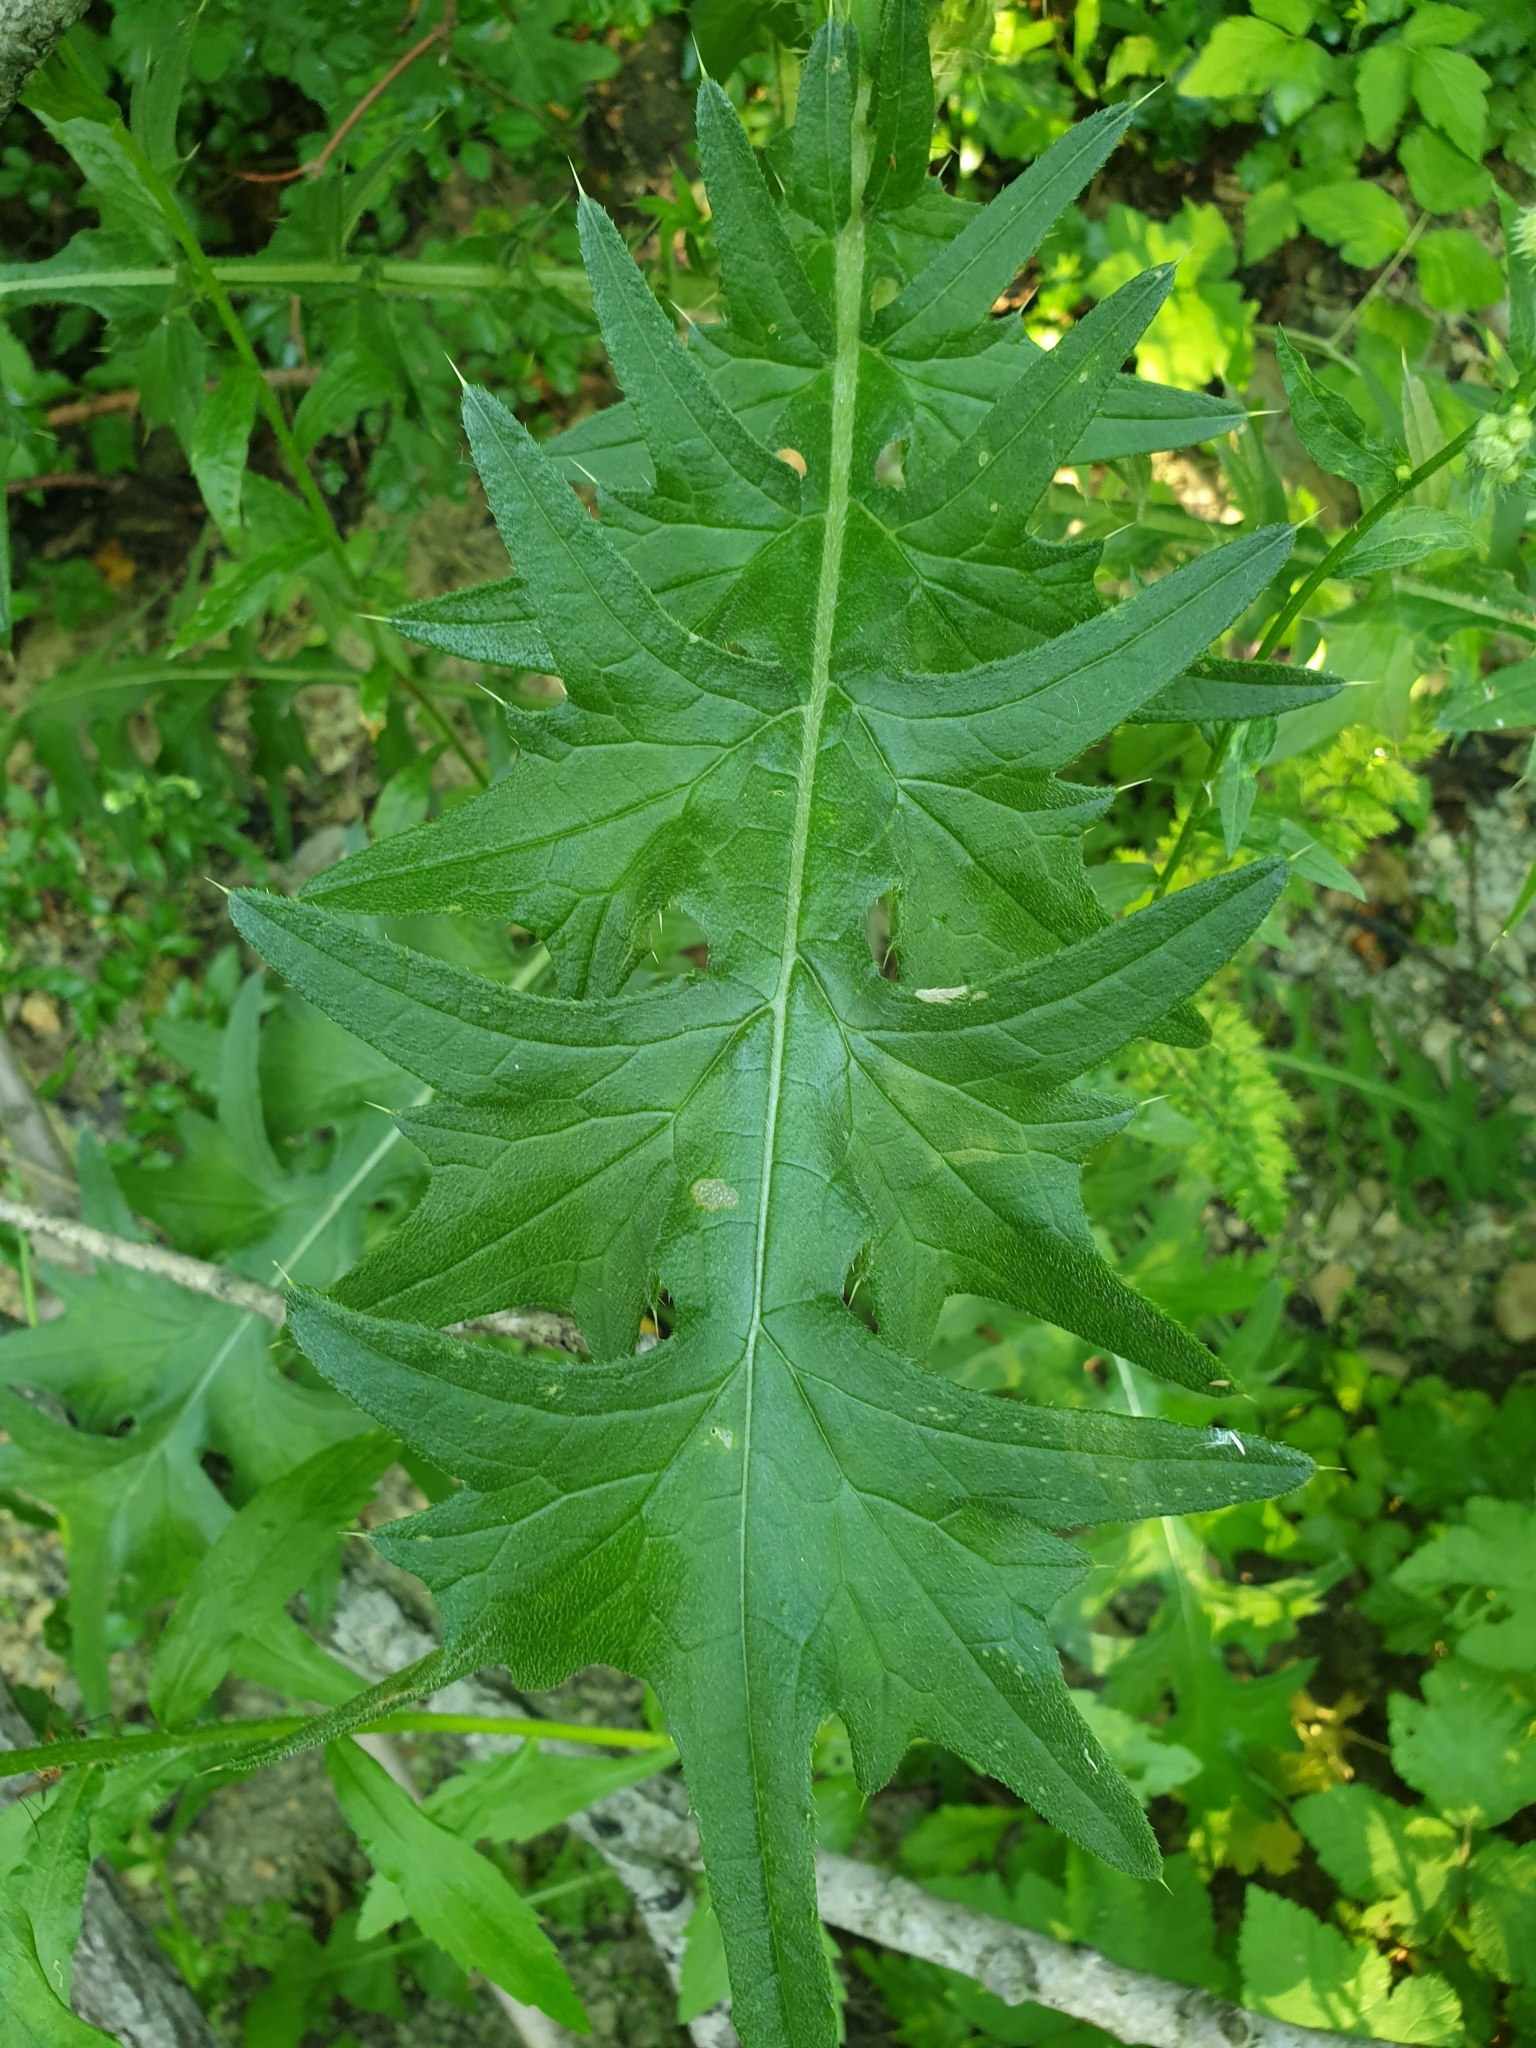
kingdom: Plantae
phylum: Tracheophyta
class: Magnoliopsida
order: Asterales
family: Asteraceae
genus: Cirsium
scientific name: Cirsium vulgare
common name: Bull thistle
